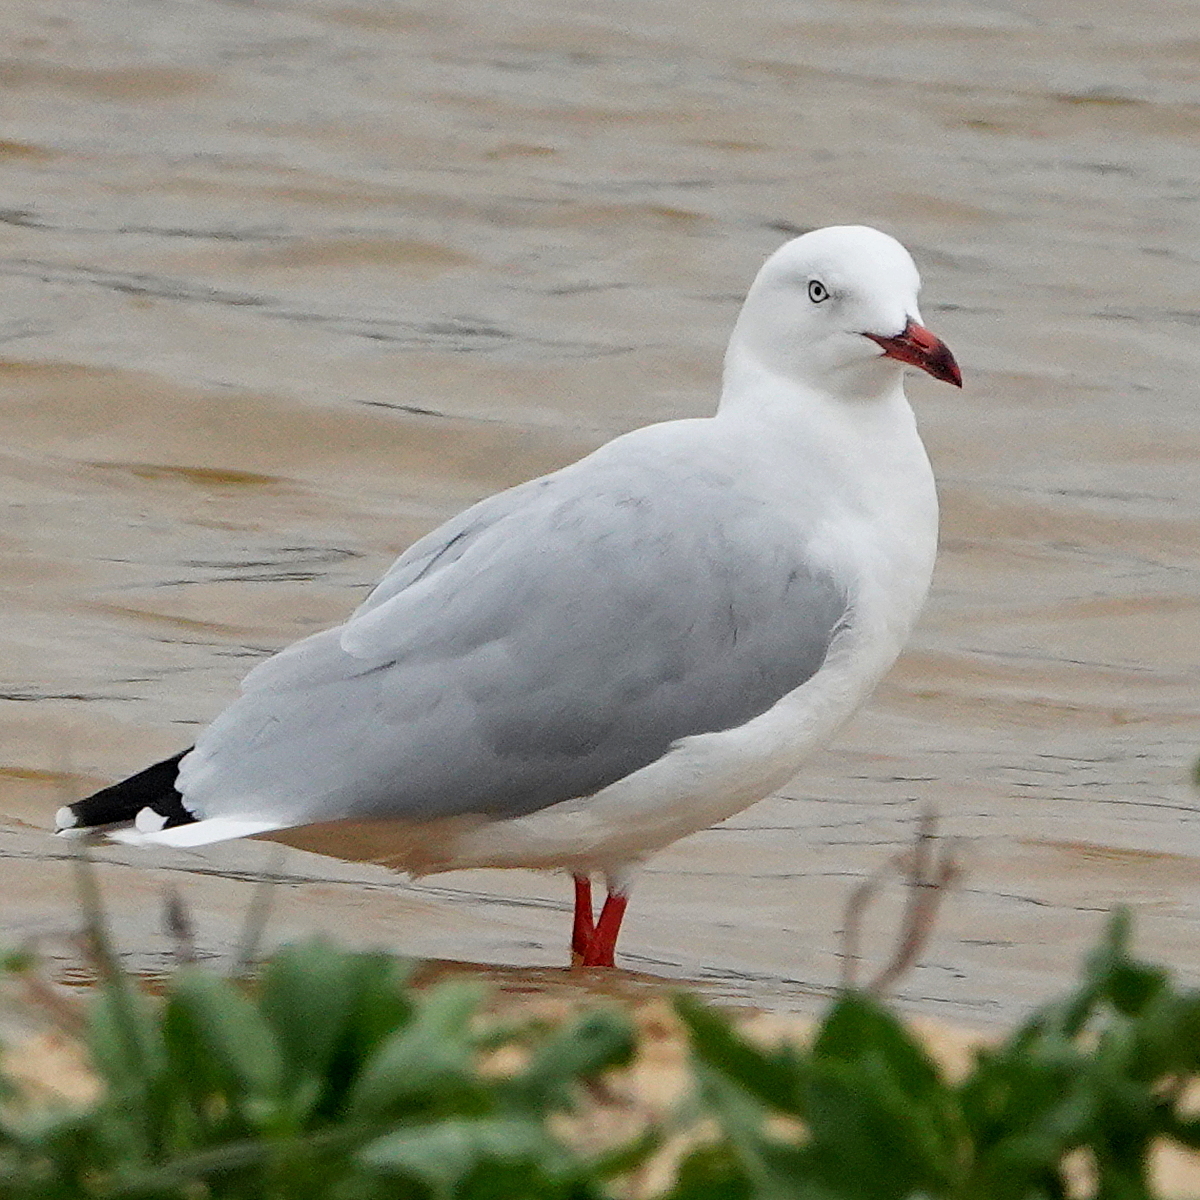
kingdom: Animalia
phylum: Chordata
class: Aves
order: Charadriiformes
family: Laridae
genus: Chroicocephalus
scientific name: Chroicocephalus novaehollandiae
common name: Silver gull
